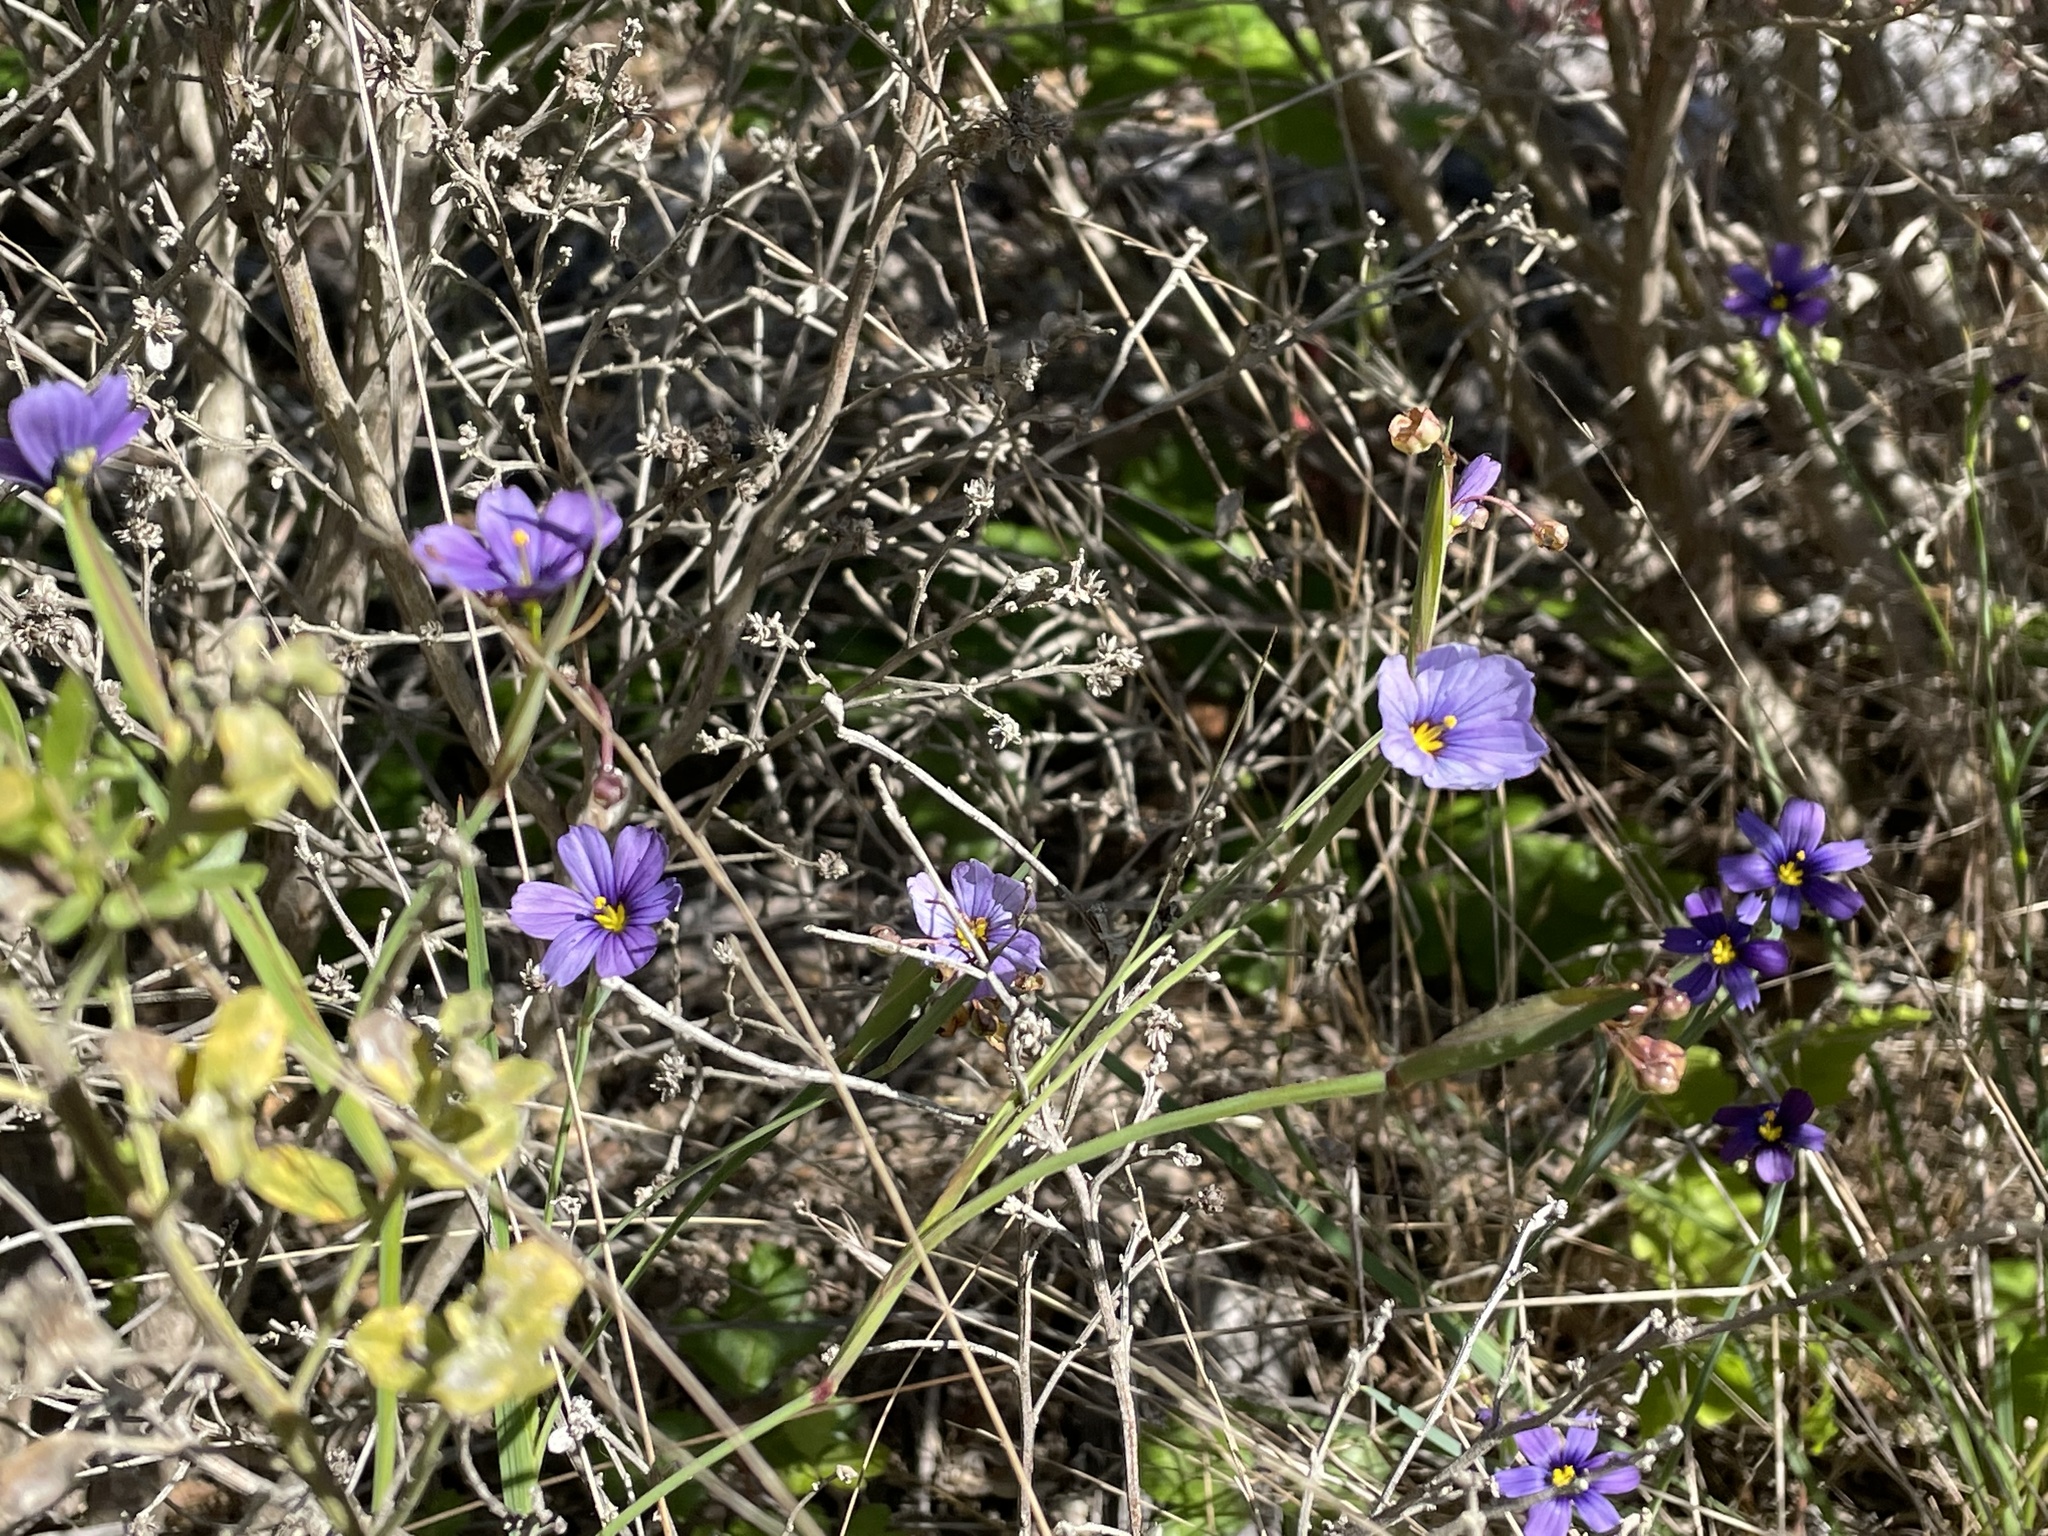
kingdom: Plantae
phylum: Tracheophyta
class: Liliopsida
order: Asparagales
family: Iridaceae
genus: Sisyrinchium
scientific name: Sisyrinchium bellum
